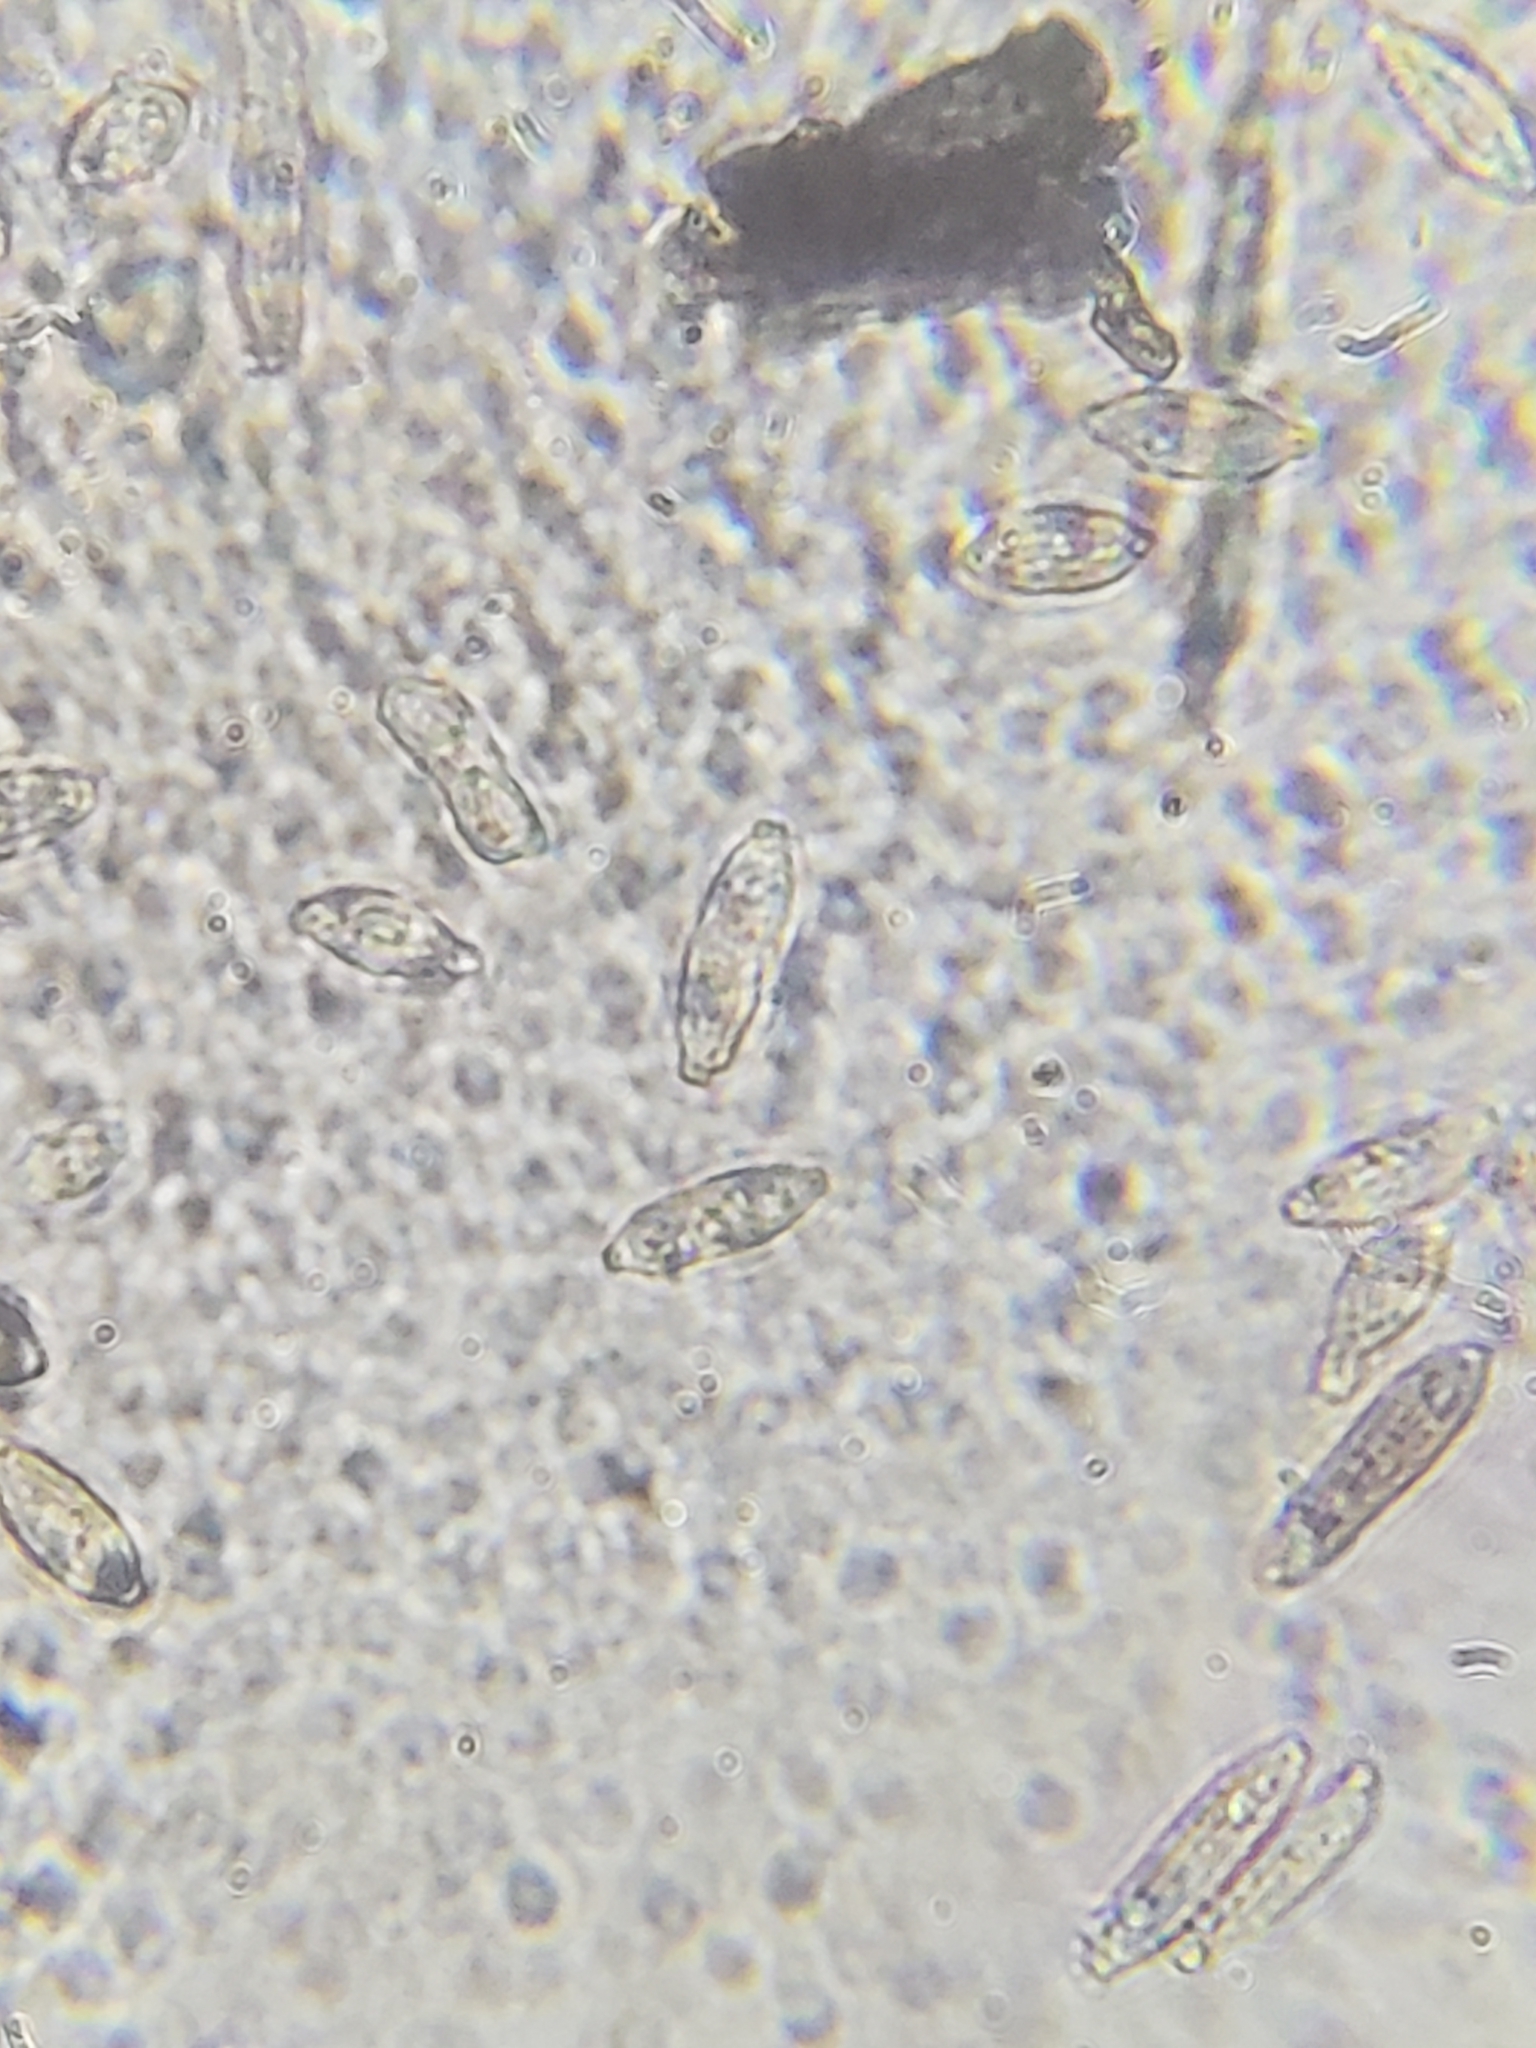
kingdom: Fungi
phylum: Ascomycota
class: Leotiomycetes
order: Helotiales
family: Cordieritidaceae
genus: Diplocarpa
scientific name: Diplocarpa irregularis
